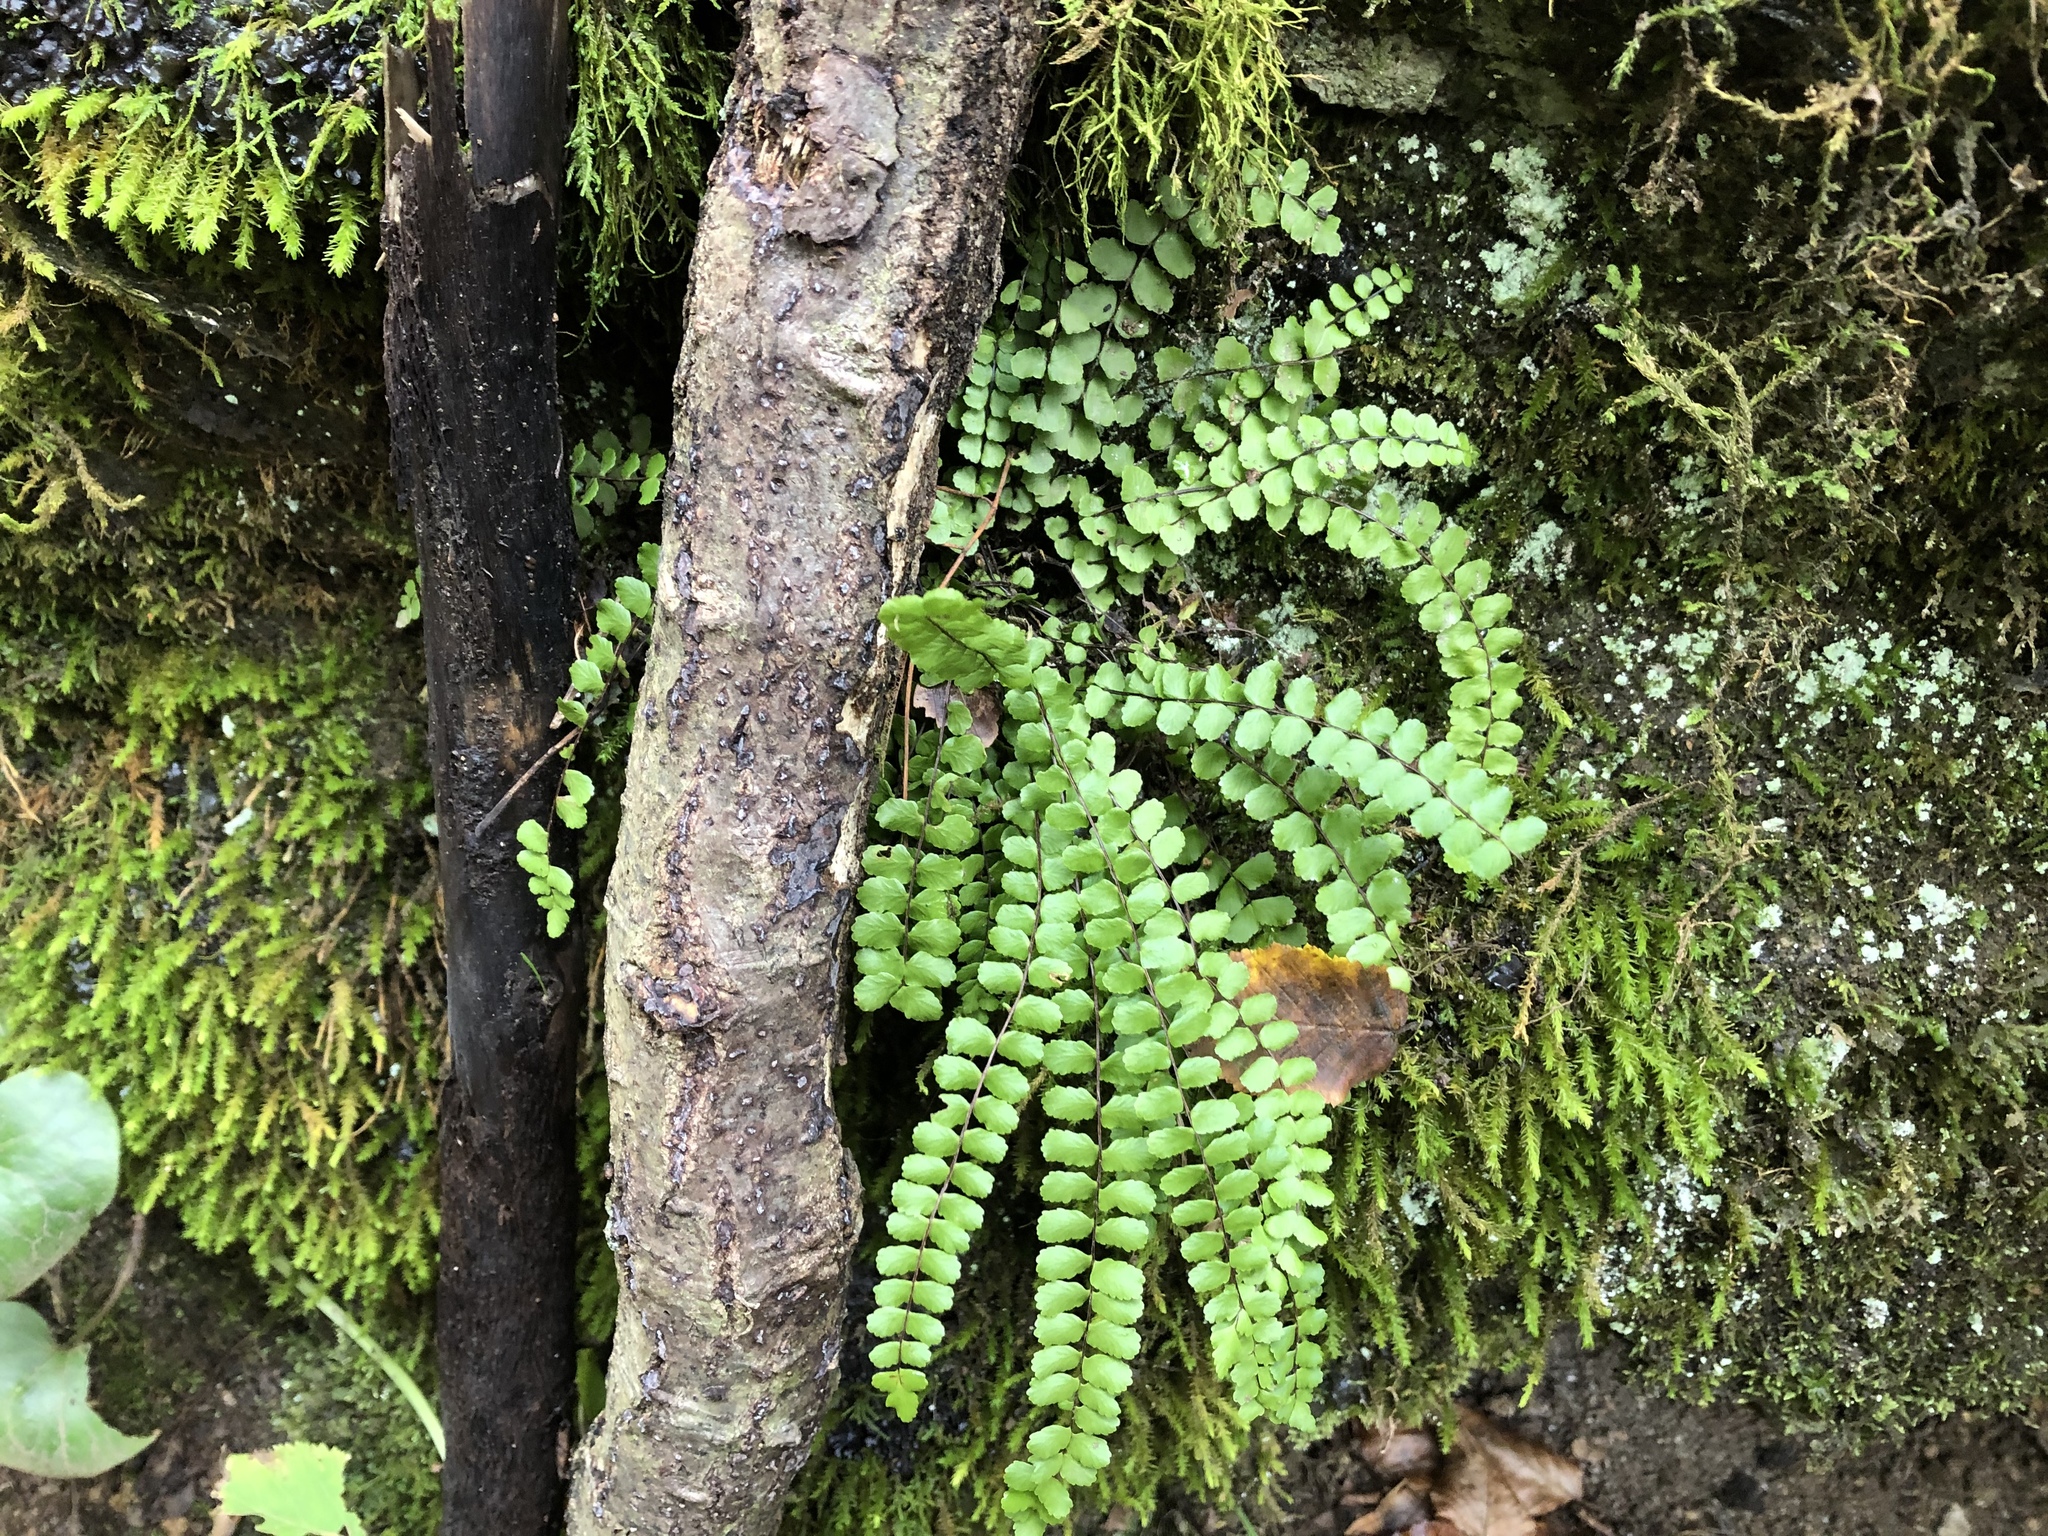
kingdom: Plantae
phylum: Tracheophyta
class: Polypodiopsida
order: Polypodiales
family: Aspleniaceae
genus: Asplenium
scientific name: Asplenium trichomanes
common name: Maidenhair spleenwort
